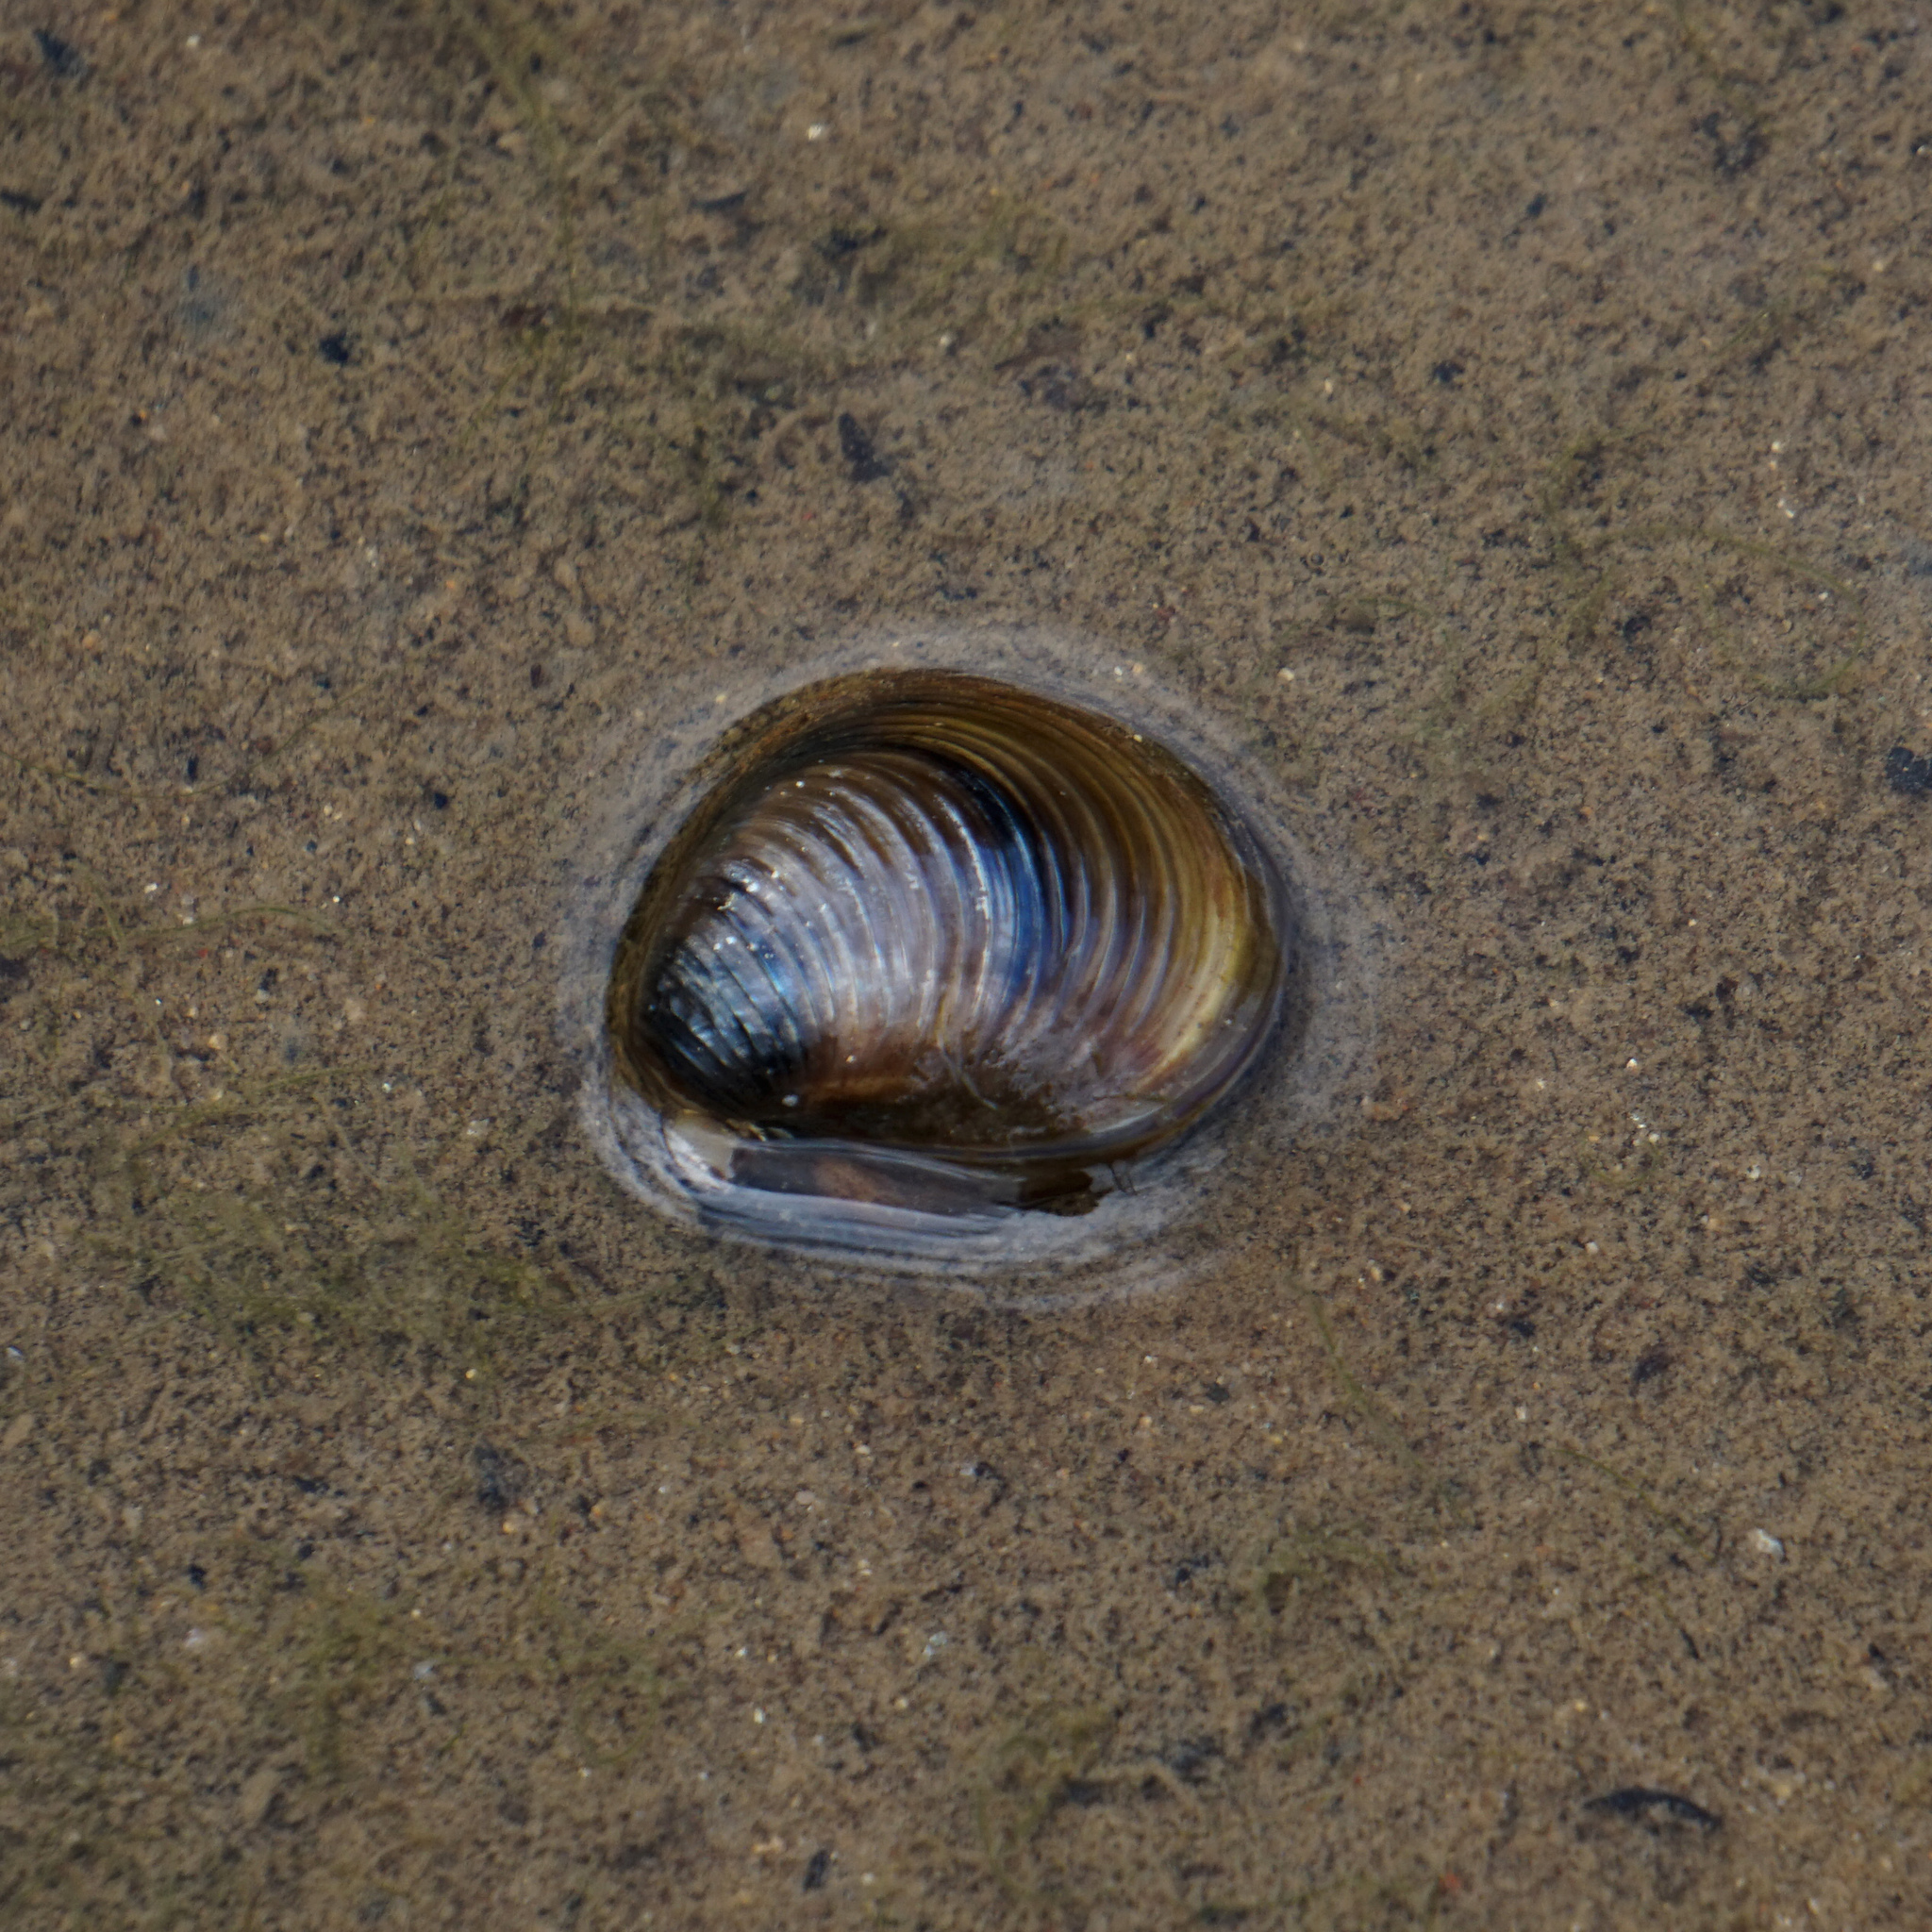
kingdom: Animalia
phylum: Mollusca
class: Bivalvia
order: Venerida
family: Cyrenidae
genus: Corbicula
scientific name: Corbicula fluminea
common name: Asian clam
